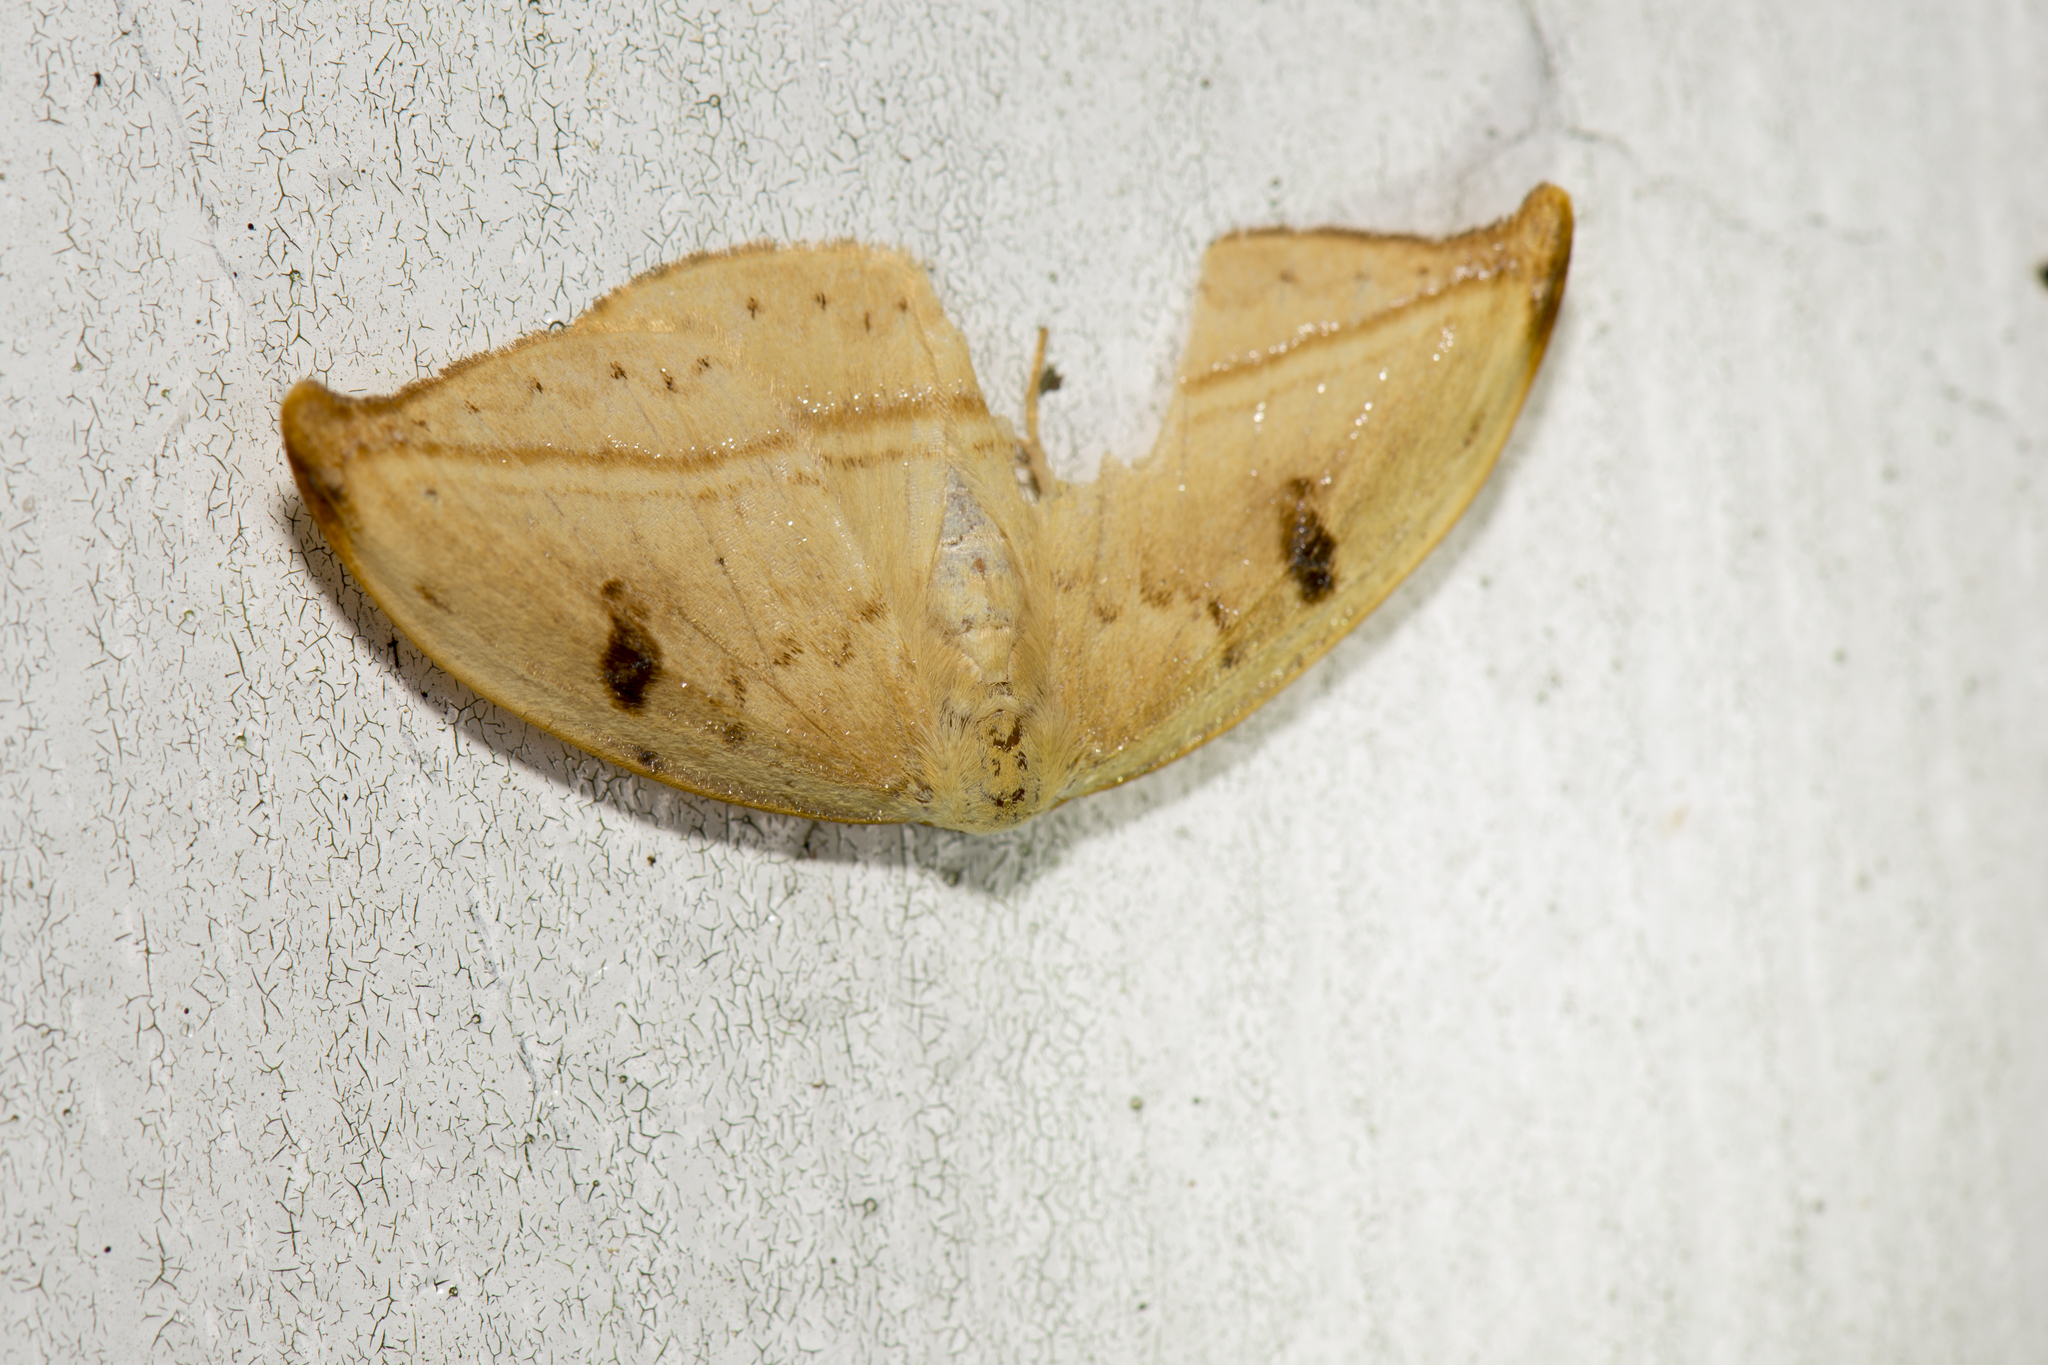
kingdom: Animalia
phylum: Arthropoda
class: Insecta
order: Lepidoptera
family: Drepanidae
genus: Callidrepana
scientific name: Callidrepana patrana
